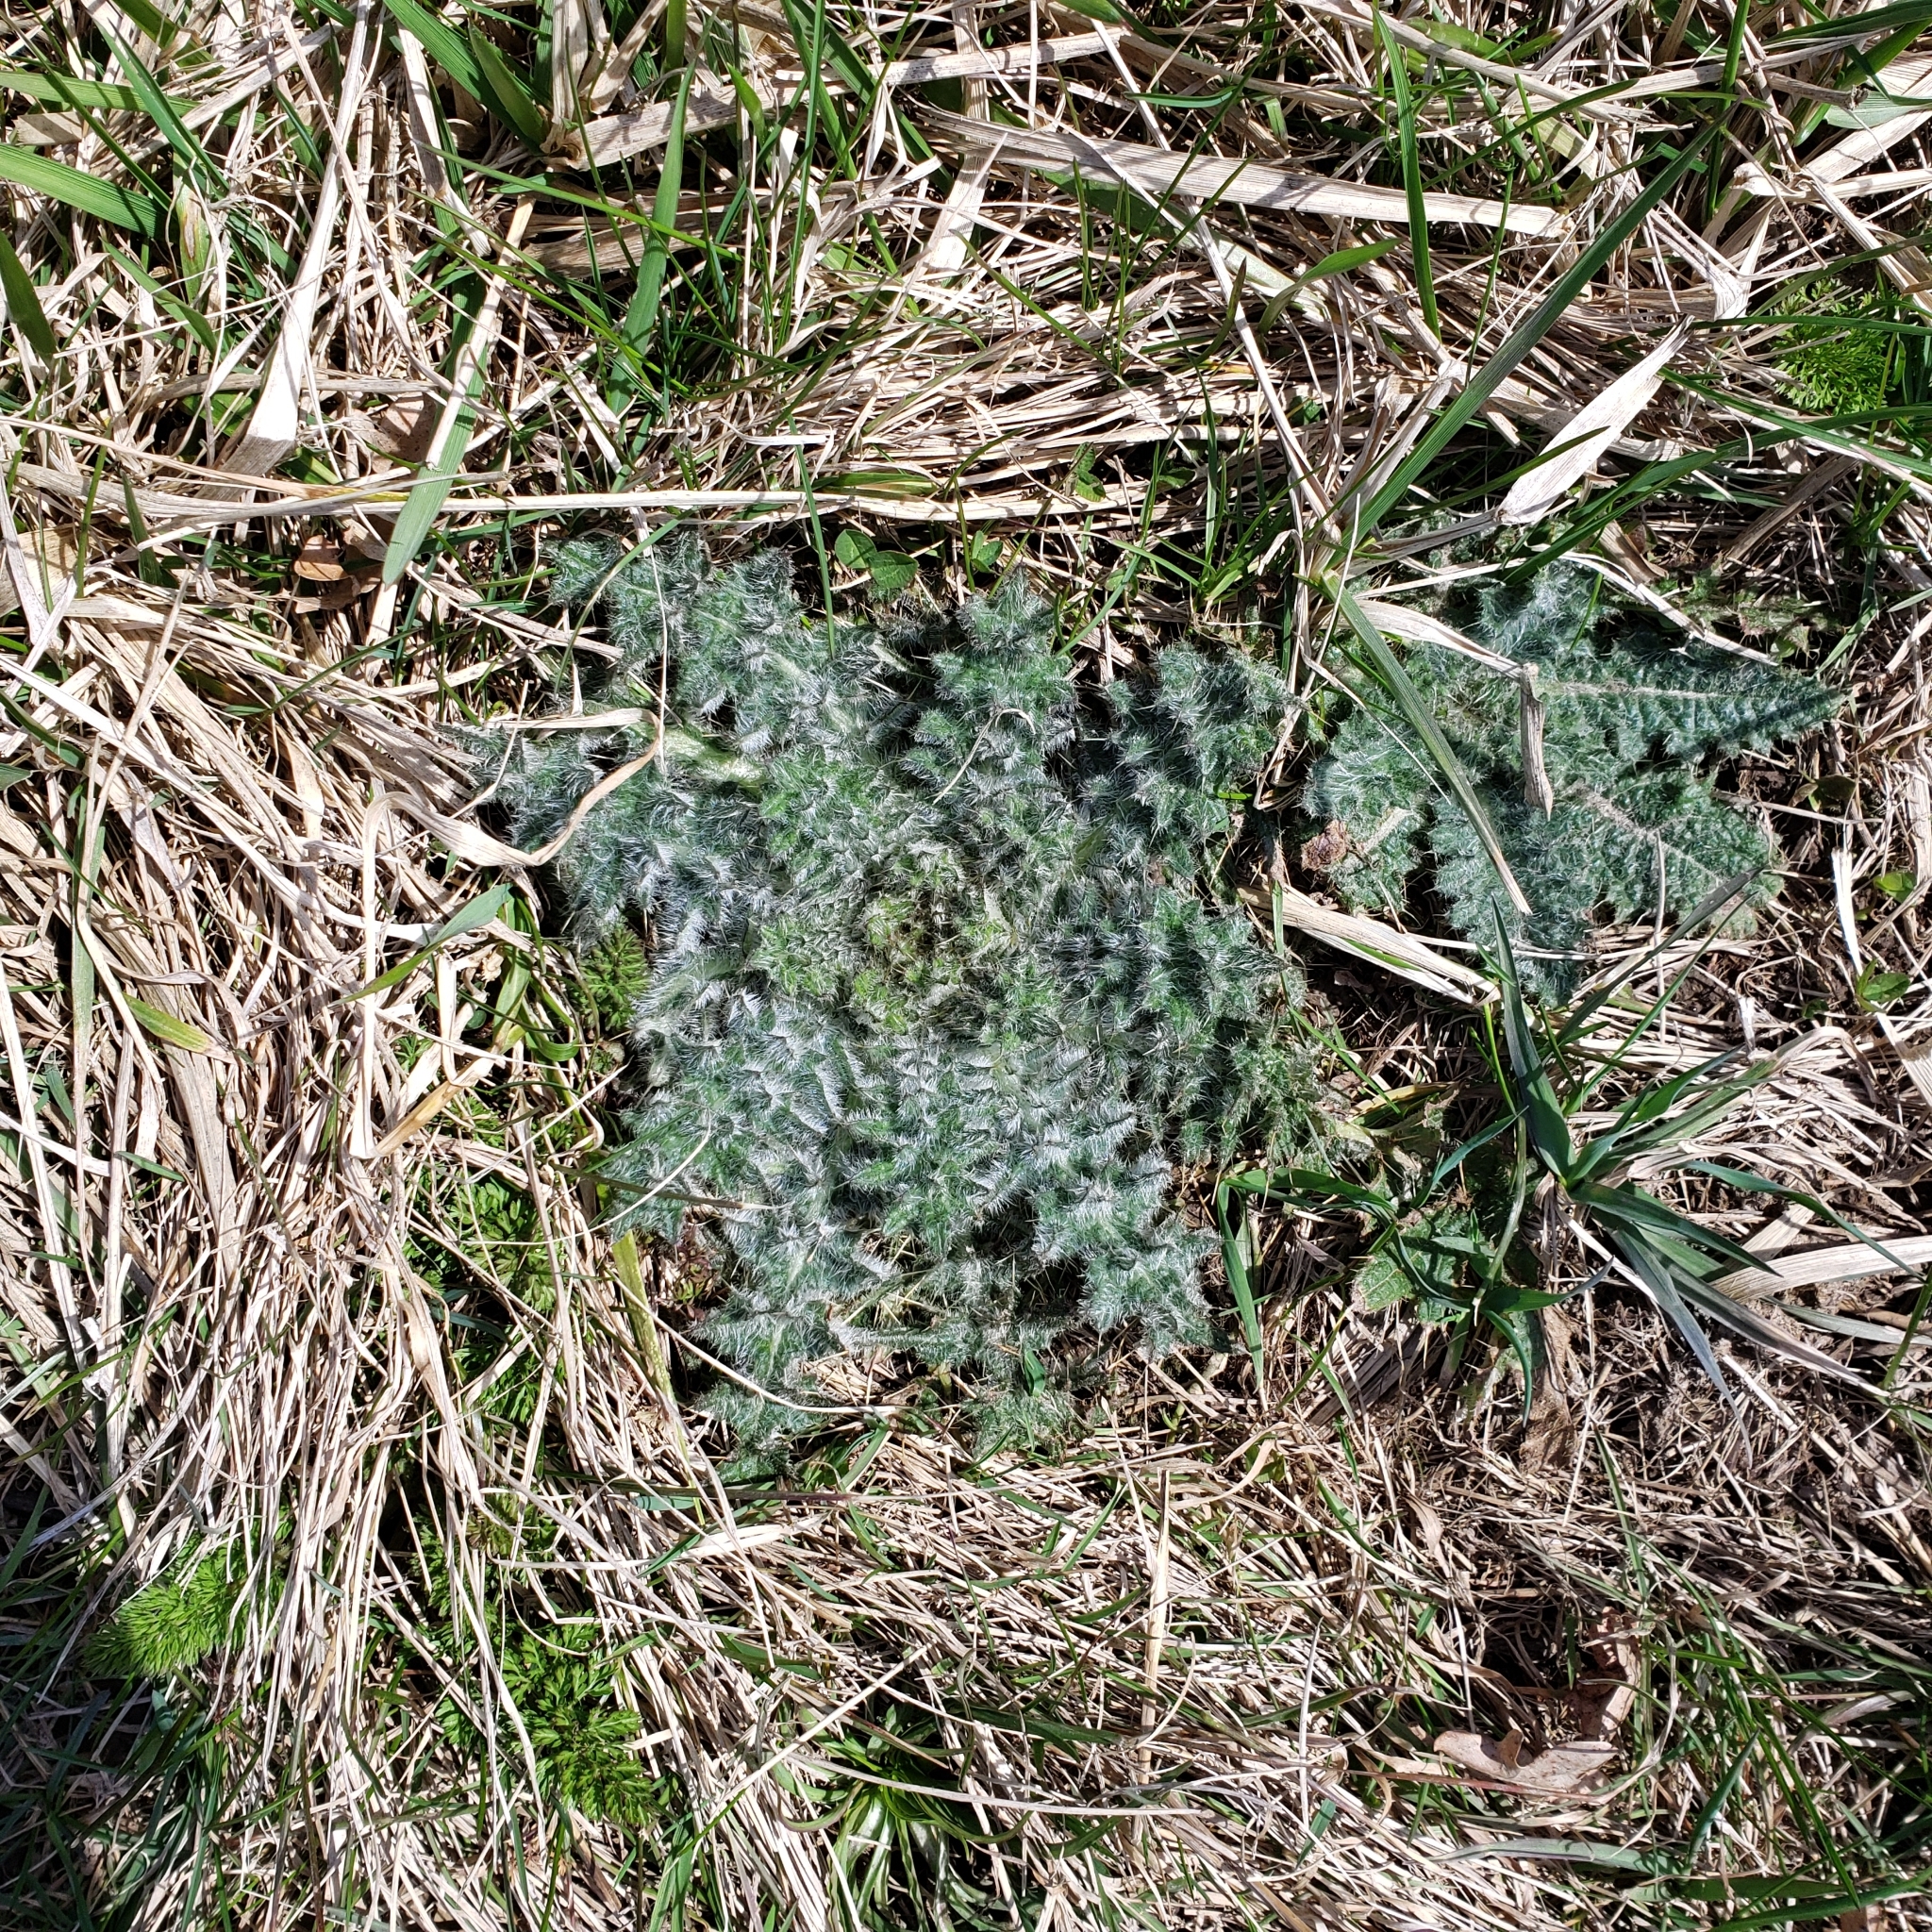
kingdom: Plantae
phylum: Tracheophyta
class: Magnoliopsida
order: Asterales
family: Asteraceae
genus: Cirsium
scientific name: Cirsium vulgare
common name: Bull thistle
